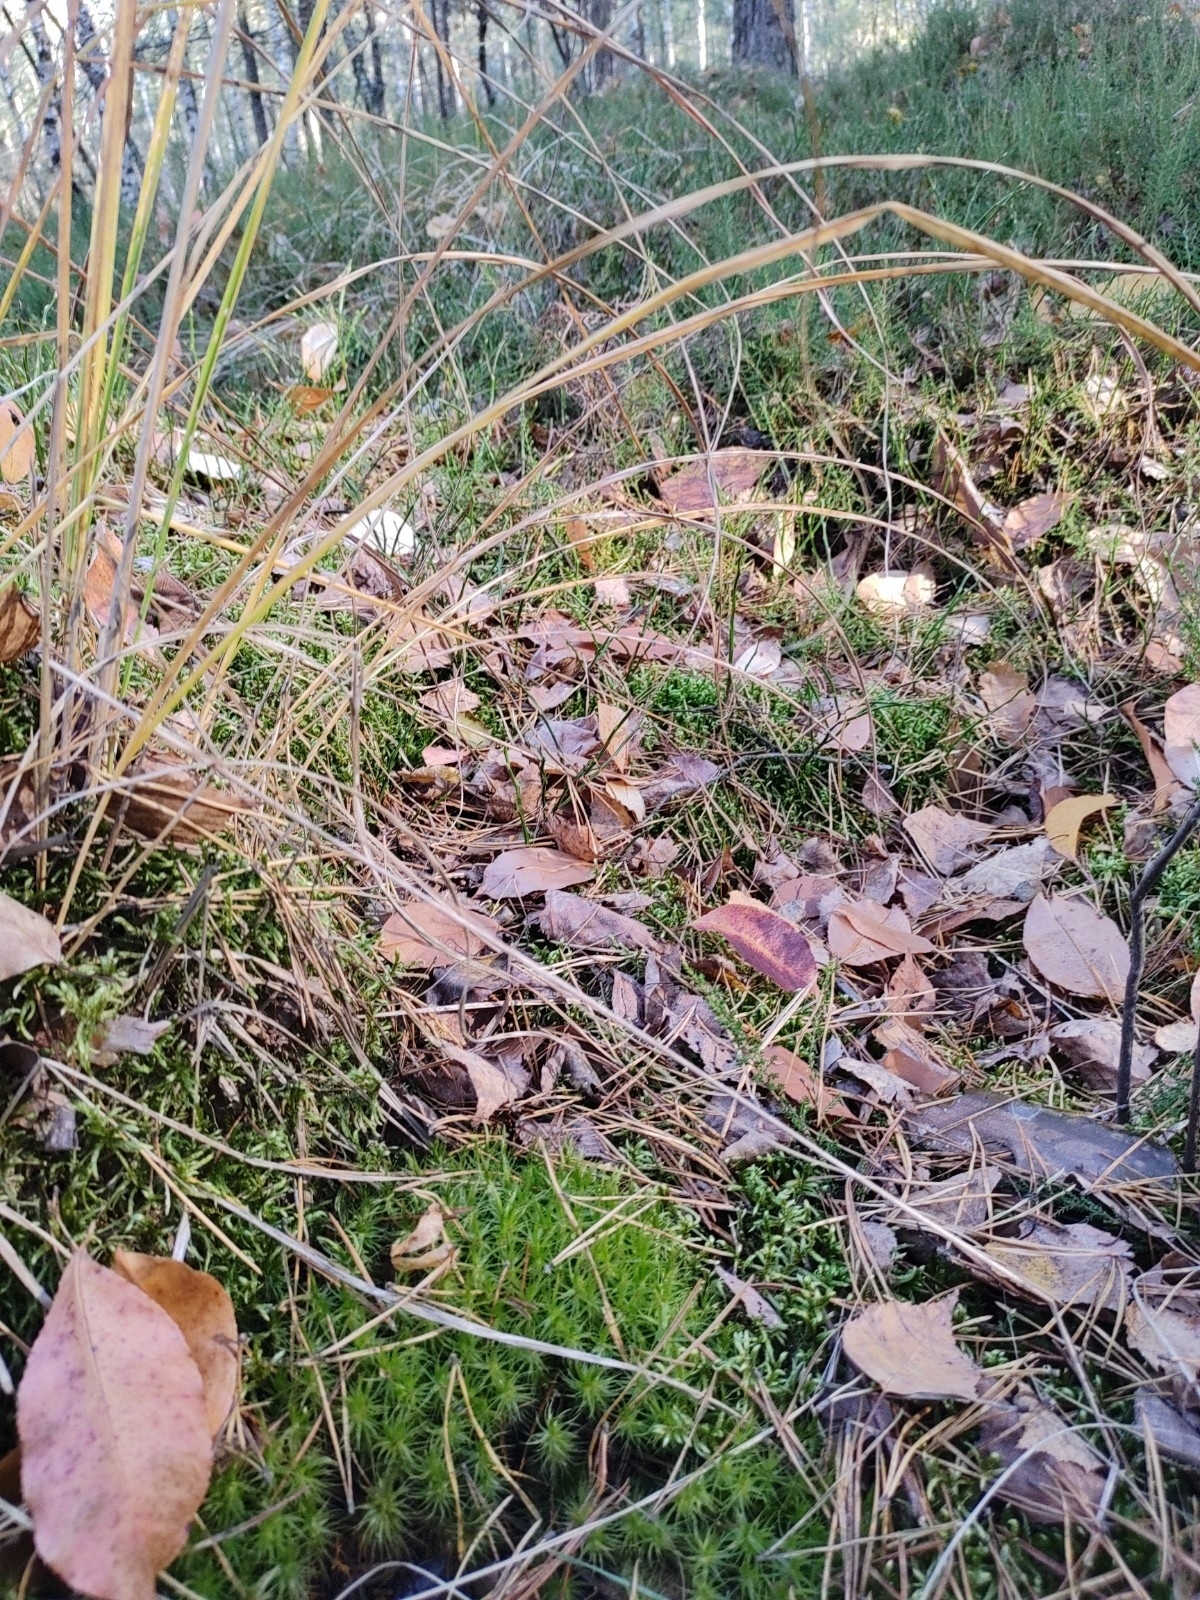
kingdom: Plantae
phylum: Bryophyta
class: Bryopsida
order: Dicranales
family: Dicranaceae
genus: Dicranum
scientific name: Dicranum polysetum
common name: Rugose fork-moss
